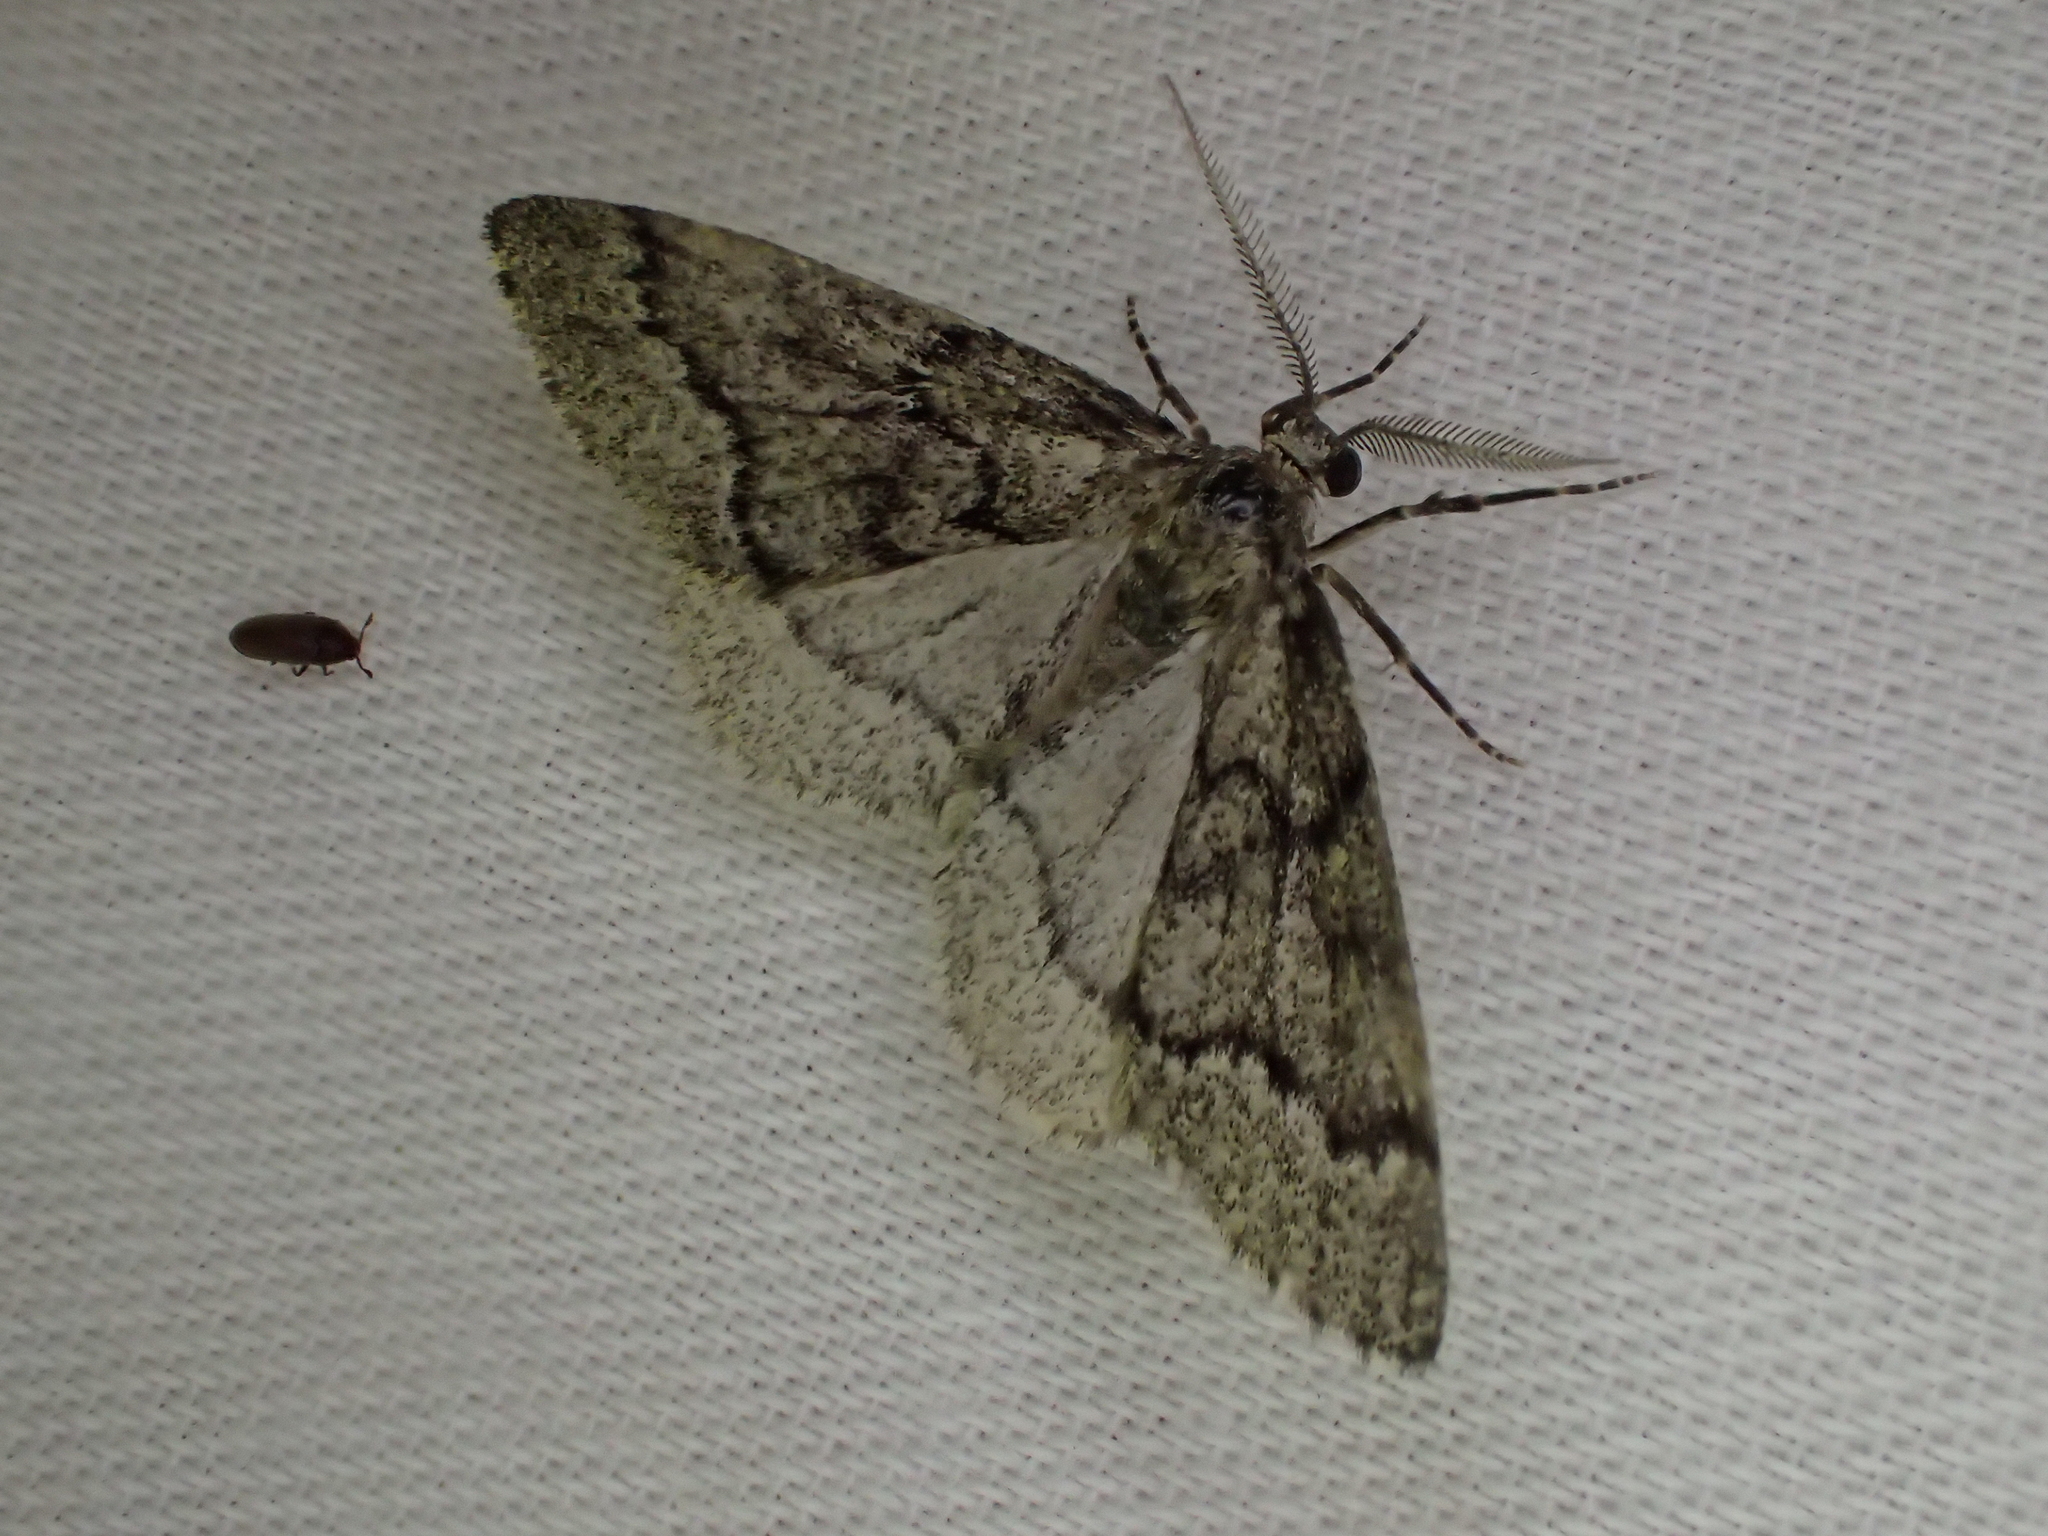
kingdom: Animalia
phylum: Arthropoda
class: Insecta
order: Lepidoptera
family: Geometridae
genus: Tephronia
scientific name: Tephronia sepiaria
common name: Dusky carpet
